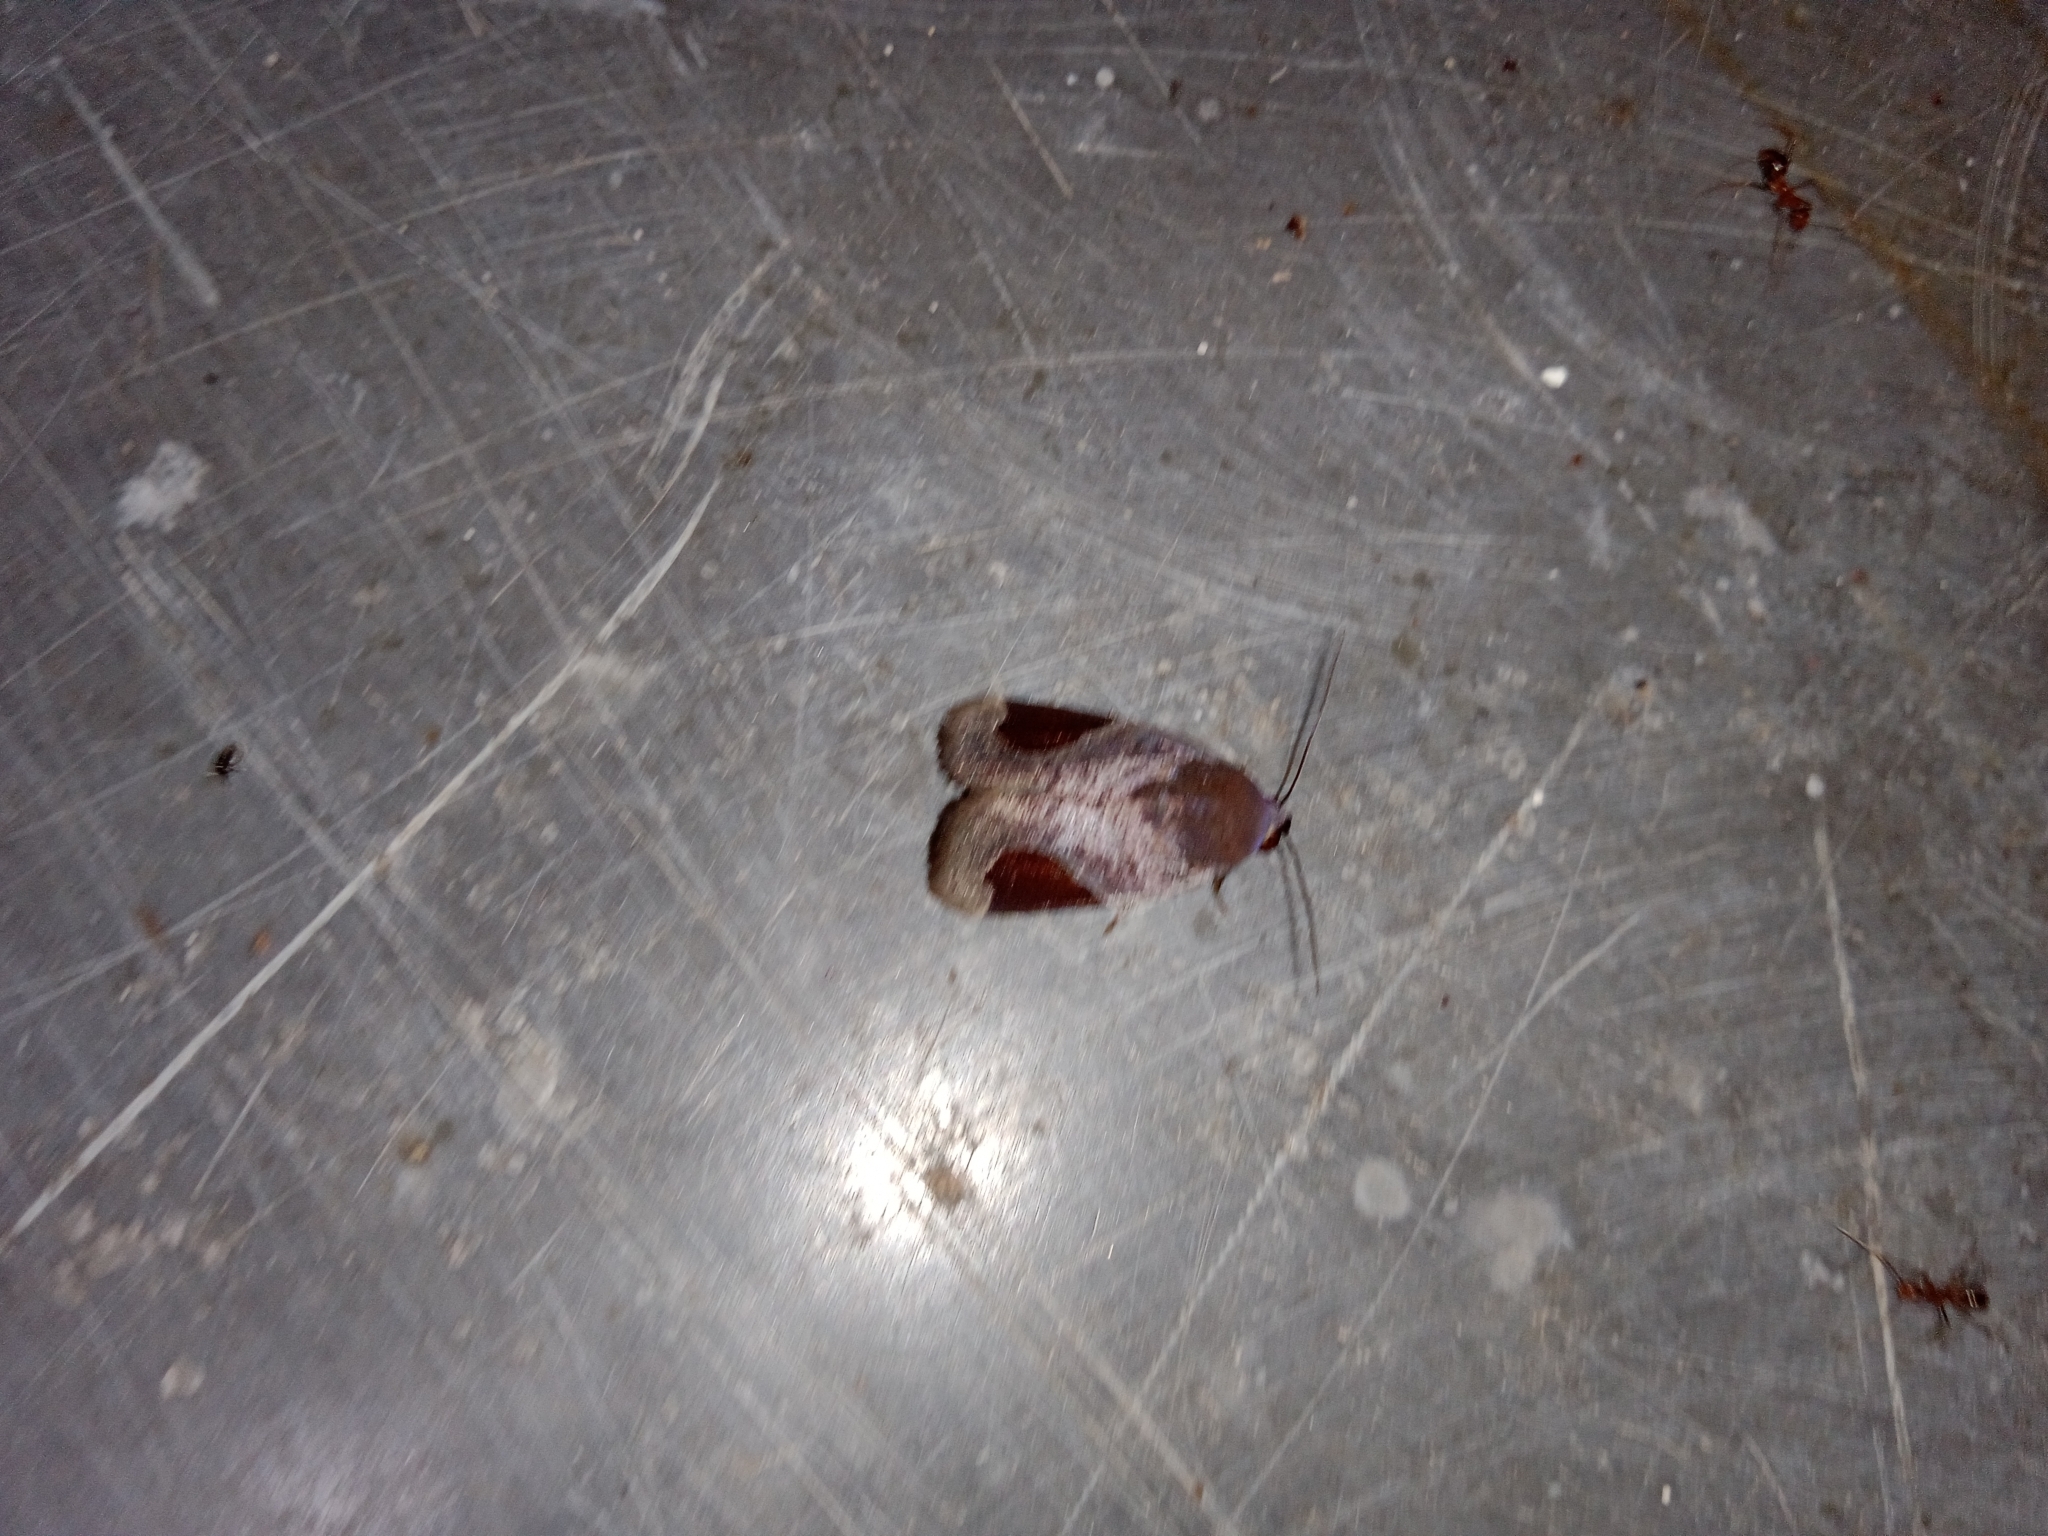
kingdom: Animalia
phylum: Arthropoda
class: Insecta
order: Lepidoptera
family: Noctuidae
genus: Dyrzela
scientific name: Dyrzela plagiata
